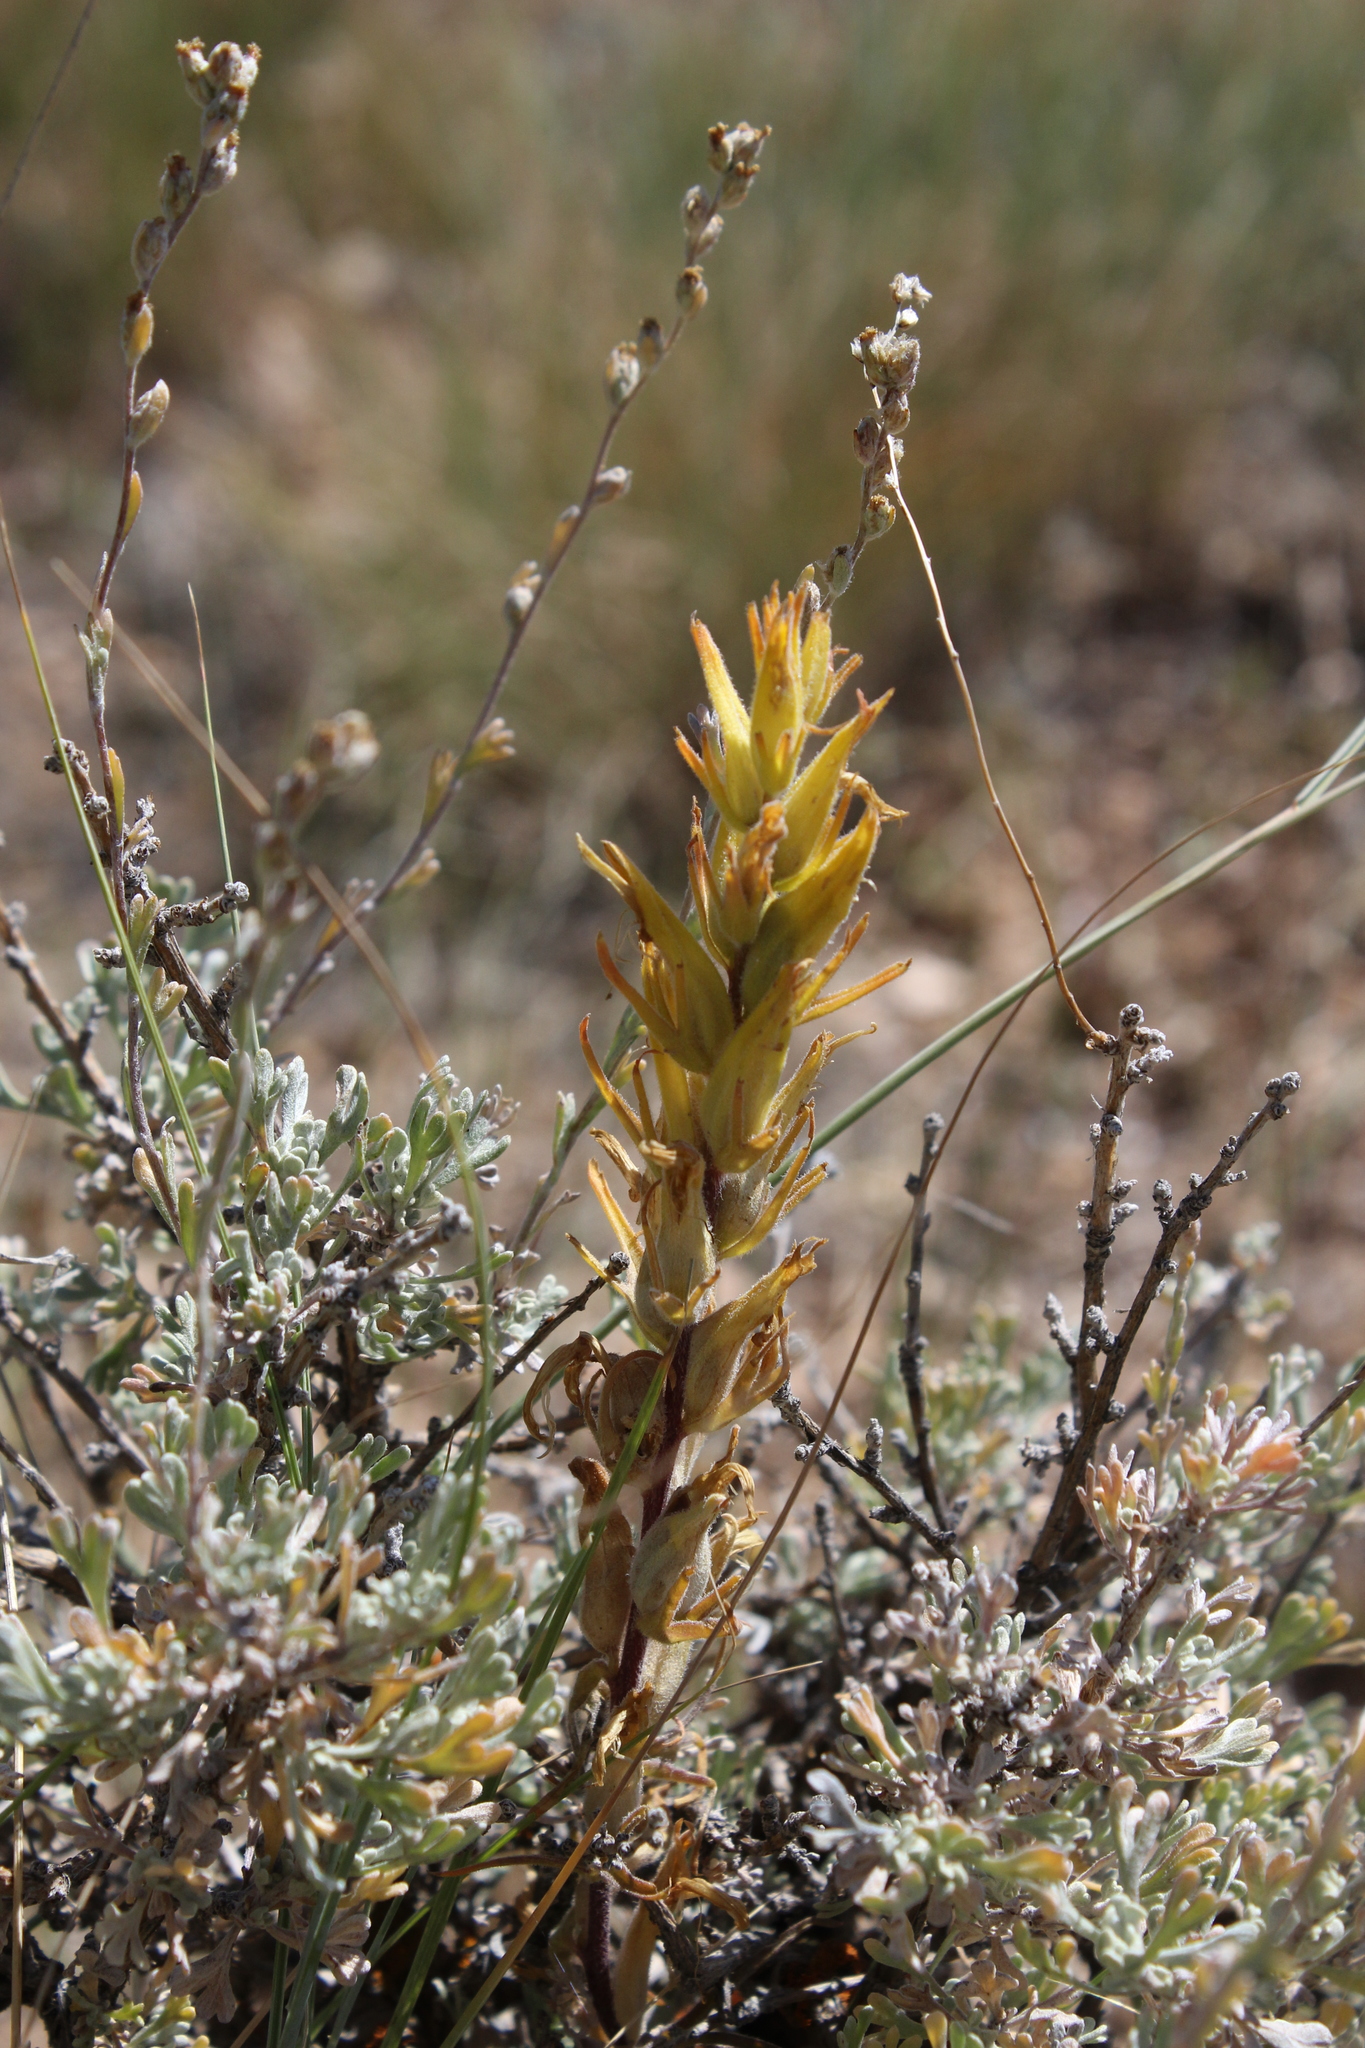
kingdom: Plantae
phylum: Tracheophyta
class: Magnoliopsida
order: Lamiales
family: Orobanchaceae
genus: Castilleja
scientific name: Castilleja flava
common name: Yellow paintbrush
